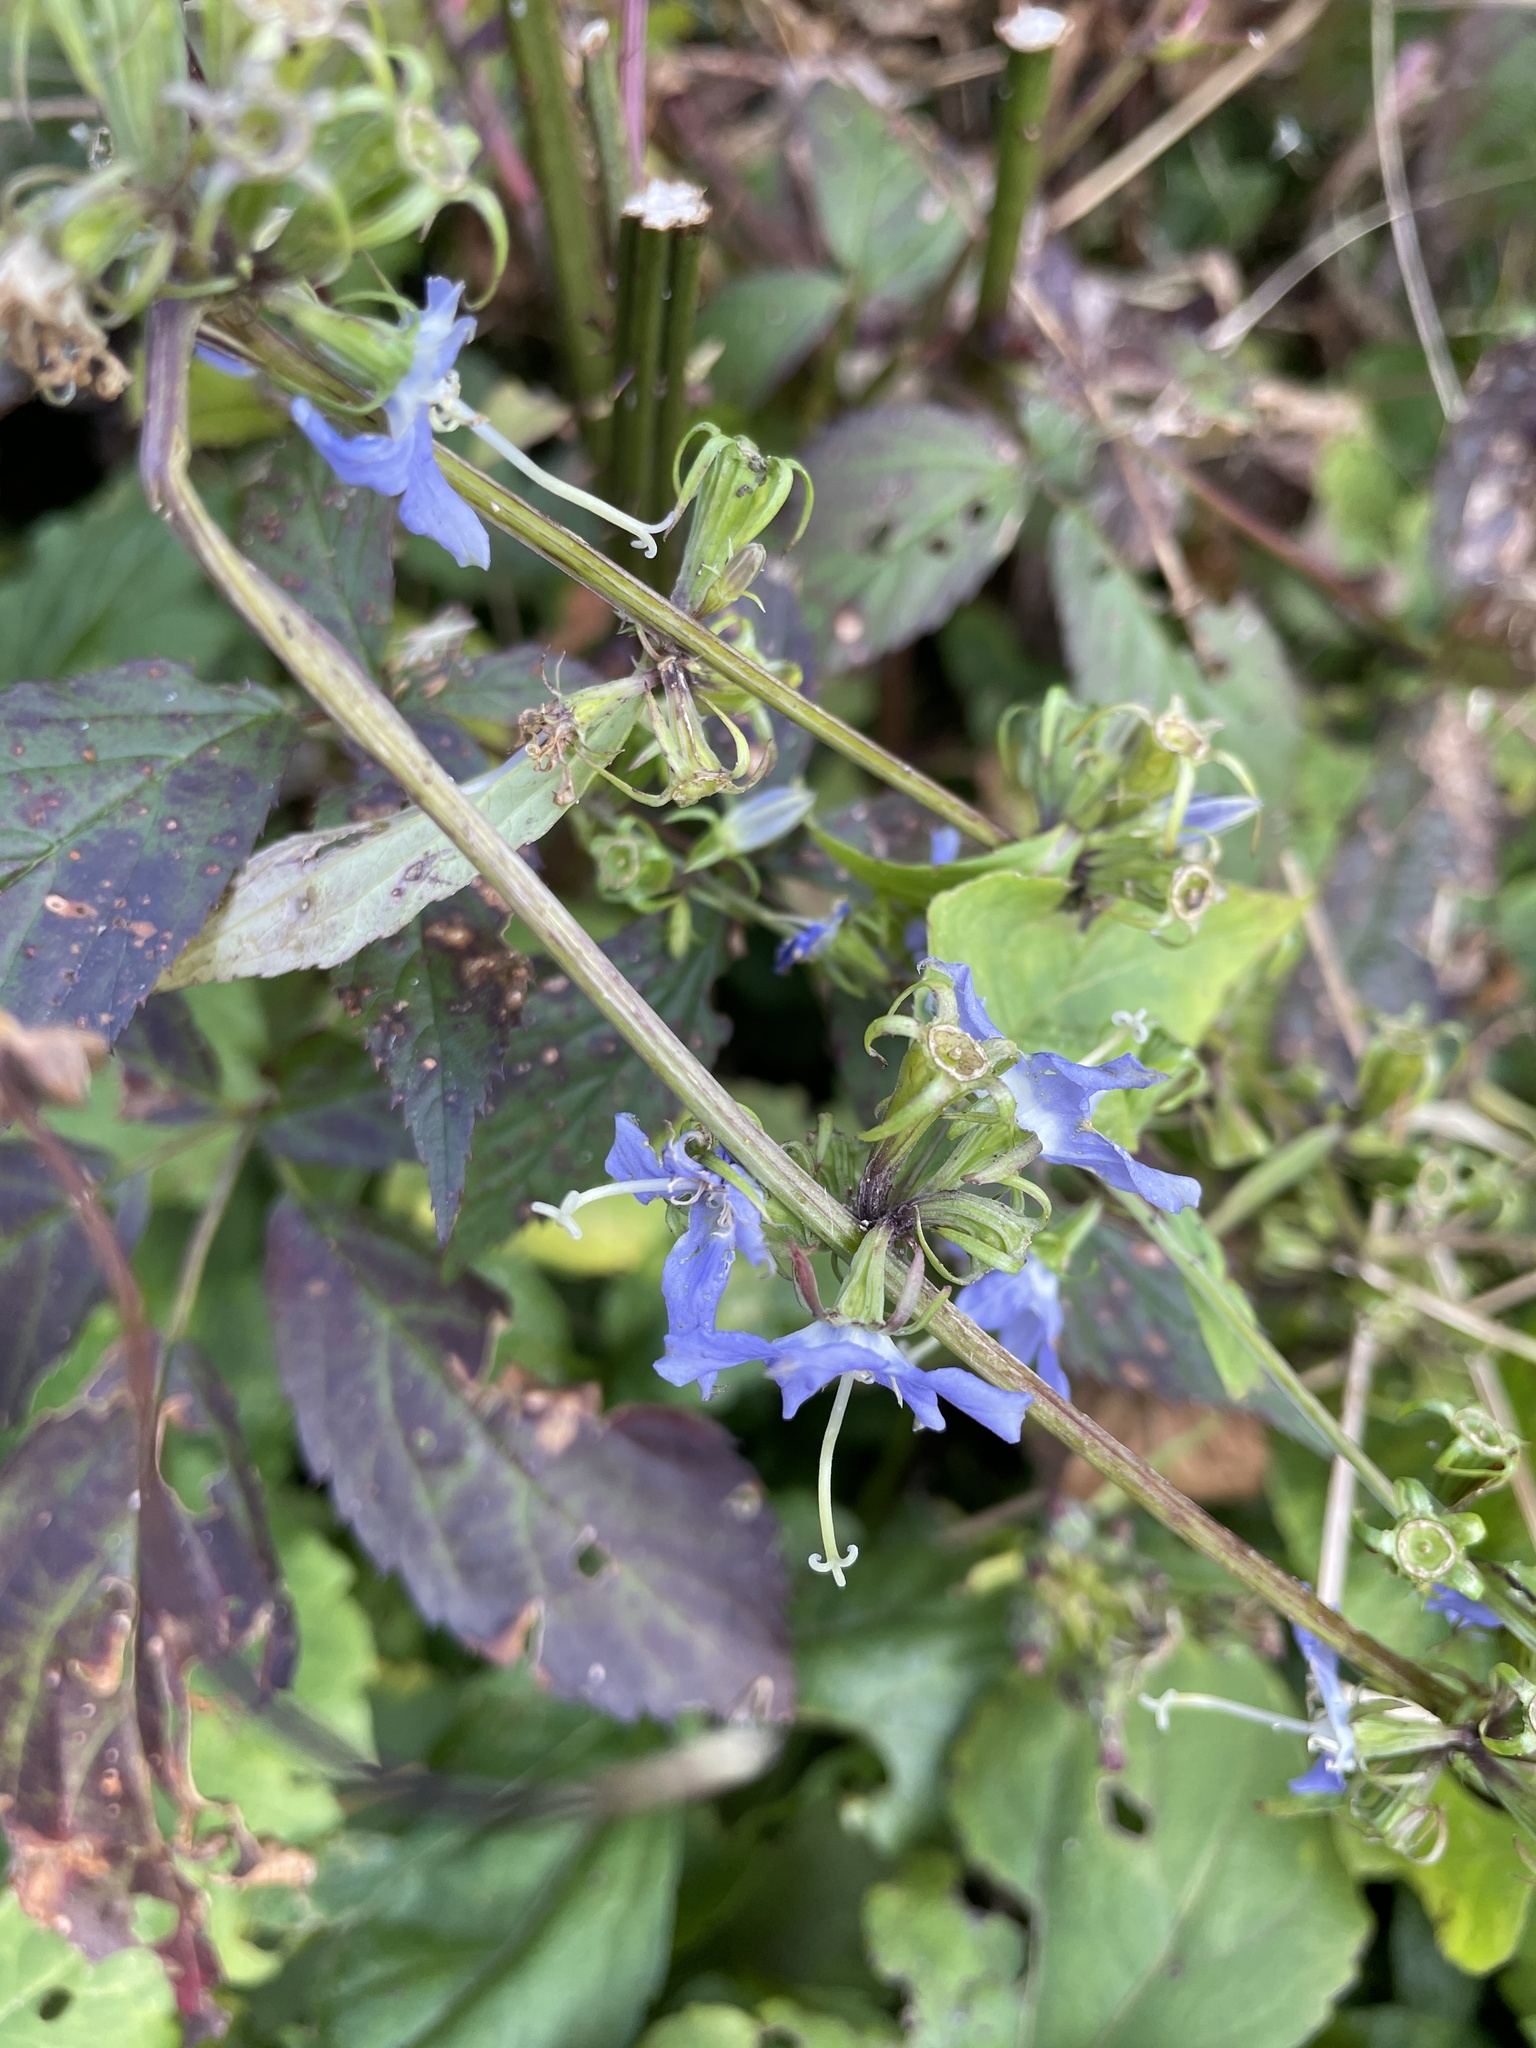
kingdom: Plantae
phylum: Tracheophyta
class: Magnoliopsida
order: Asterales
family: Campanulaceae
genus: Campanulastrum
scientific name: Campanulastrum americanum
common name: American bellflower
